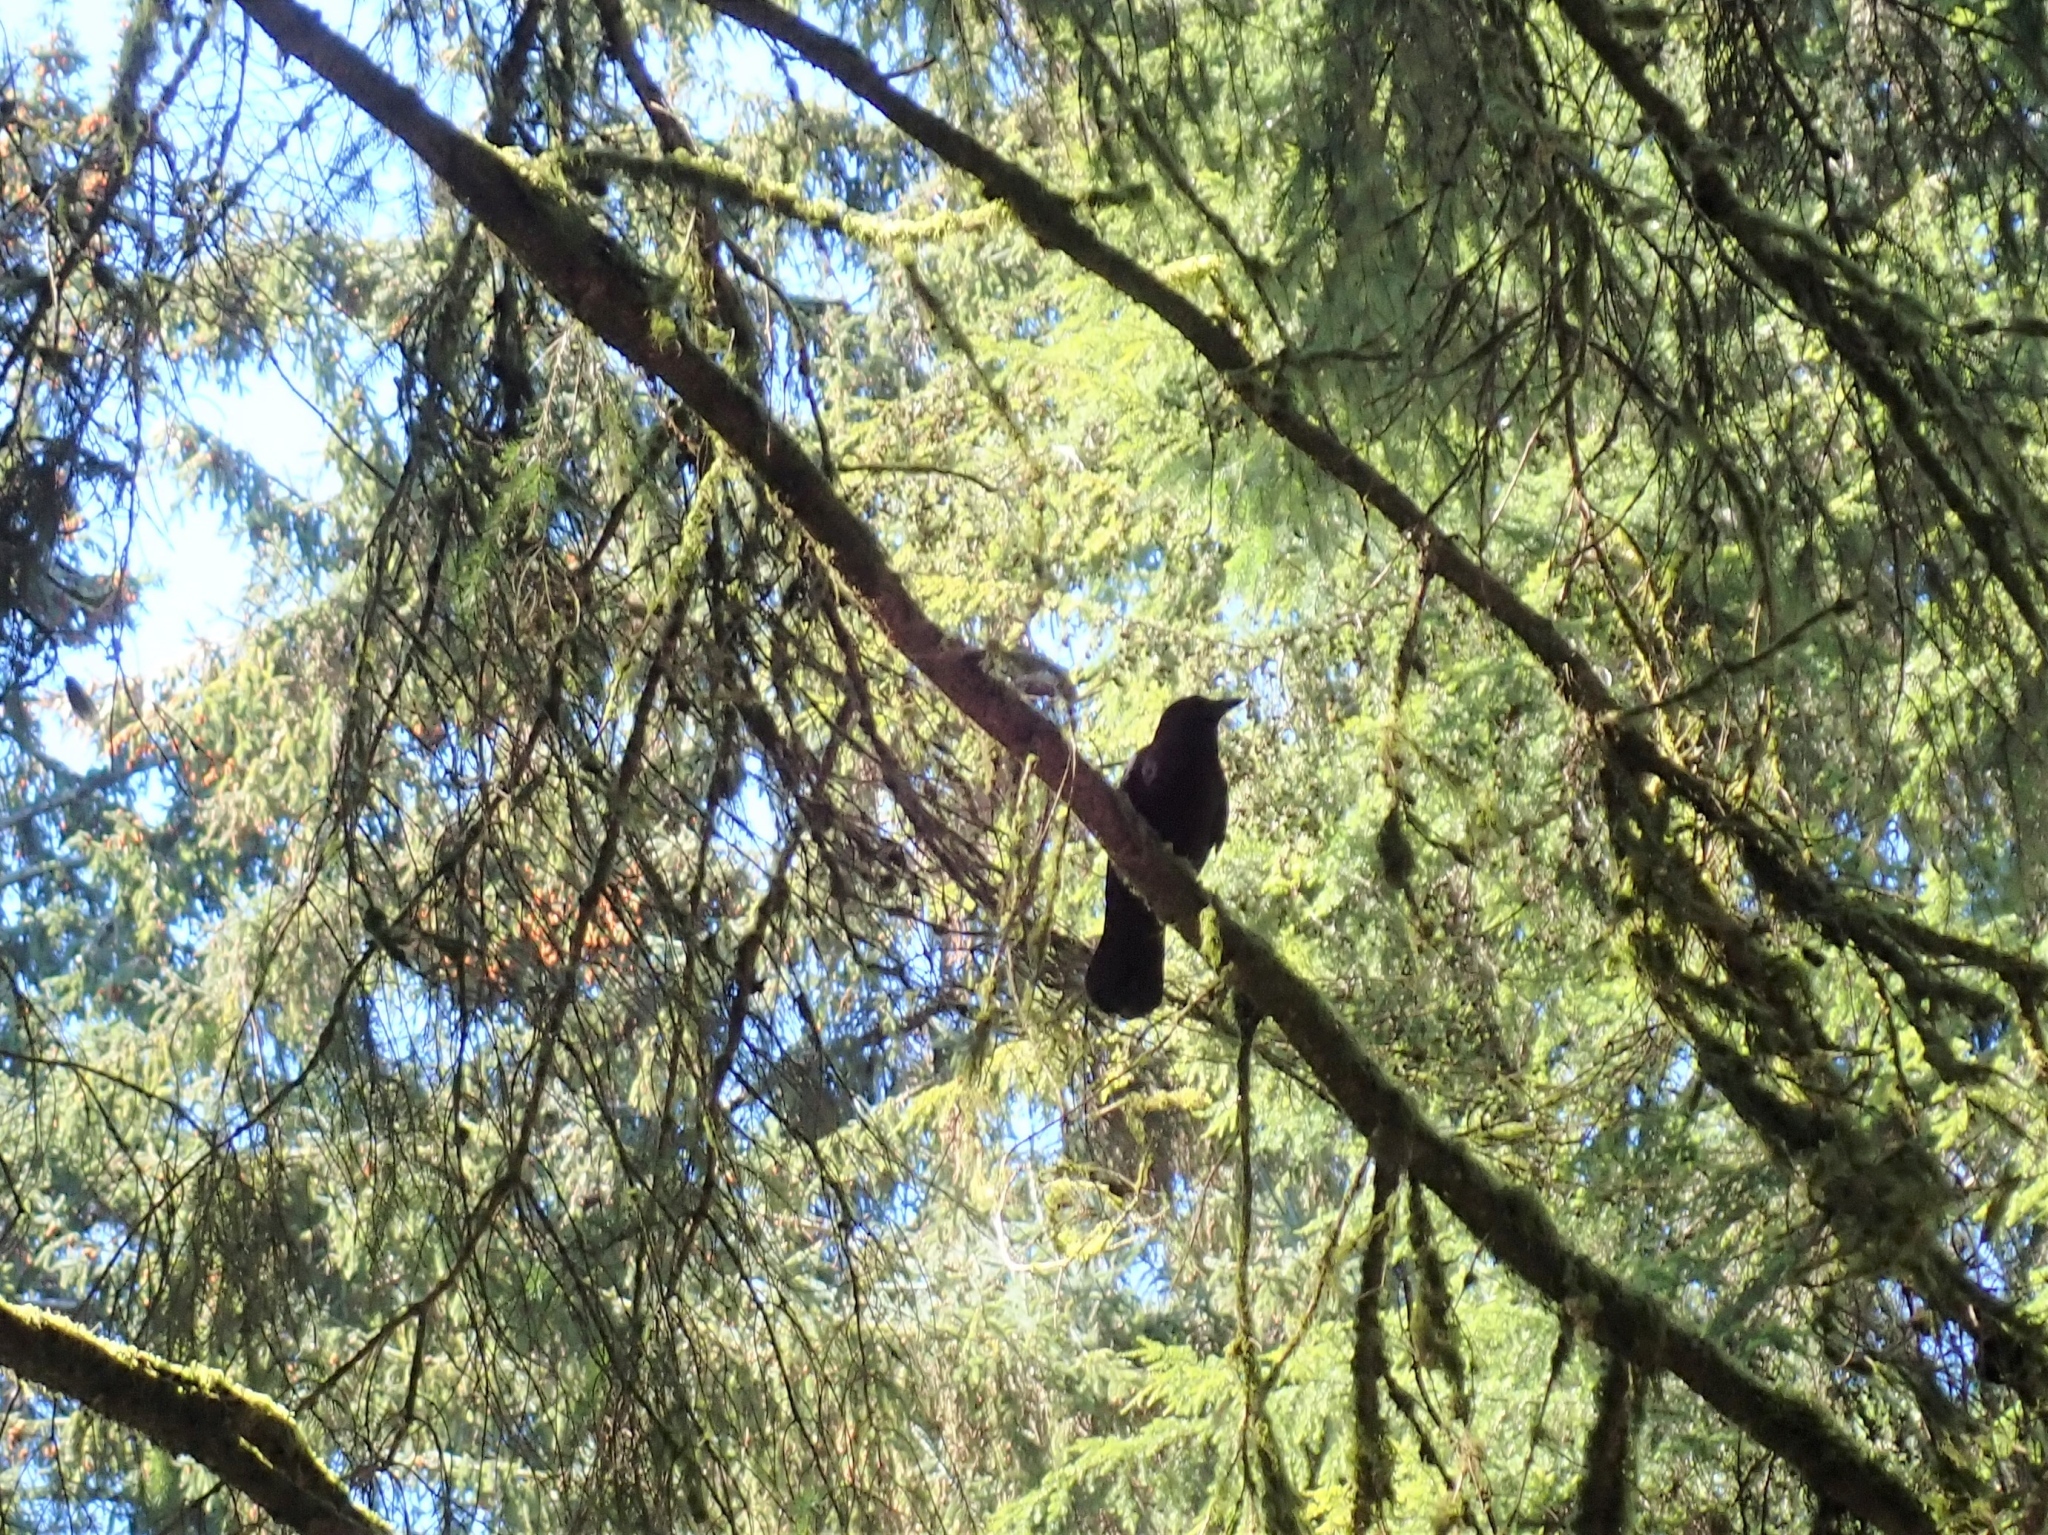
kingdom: Animalia
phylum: Chordata
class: Aves
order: Passeriformes
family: Corvidae
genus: Corvus
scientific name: Corvus brachyrhynchos
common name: American crow
